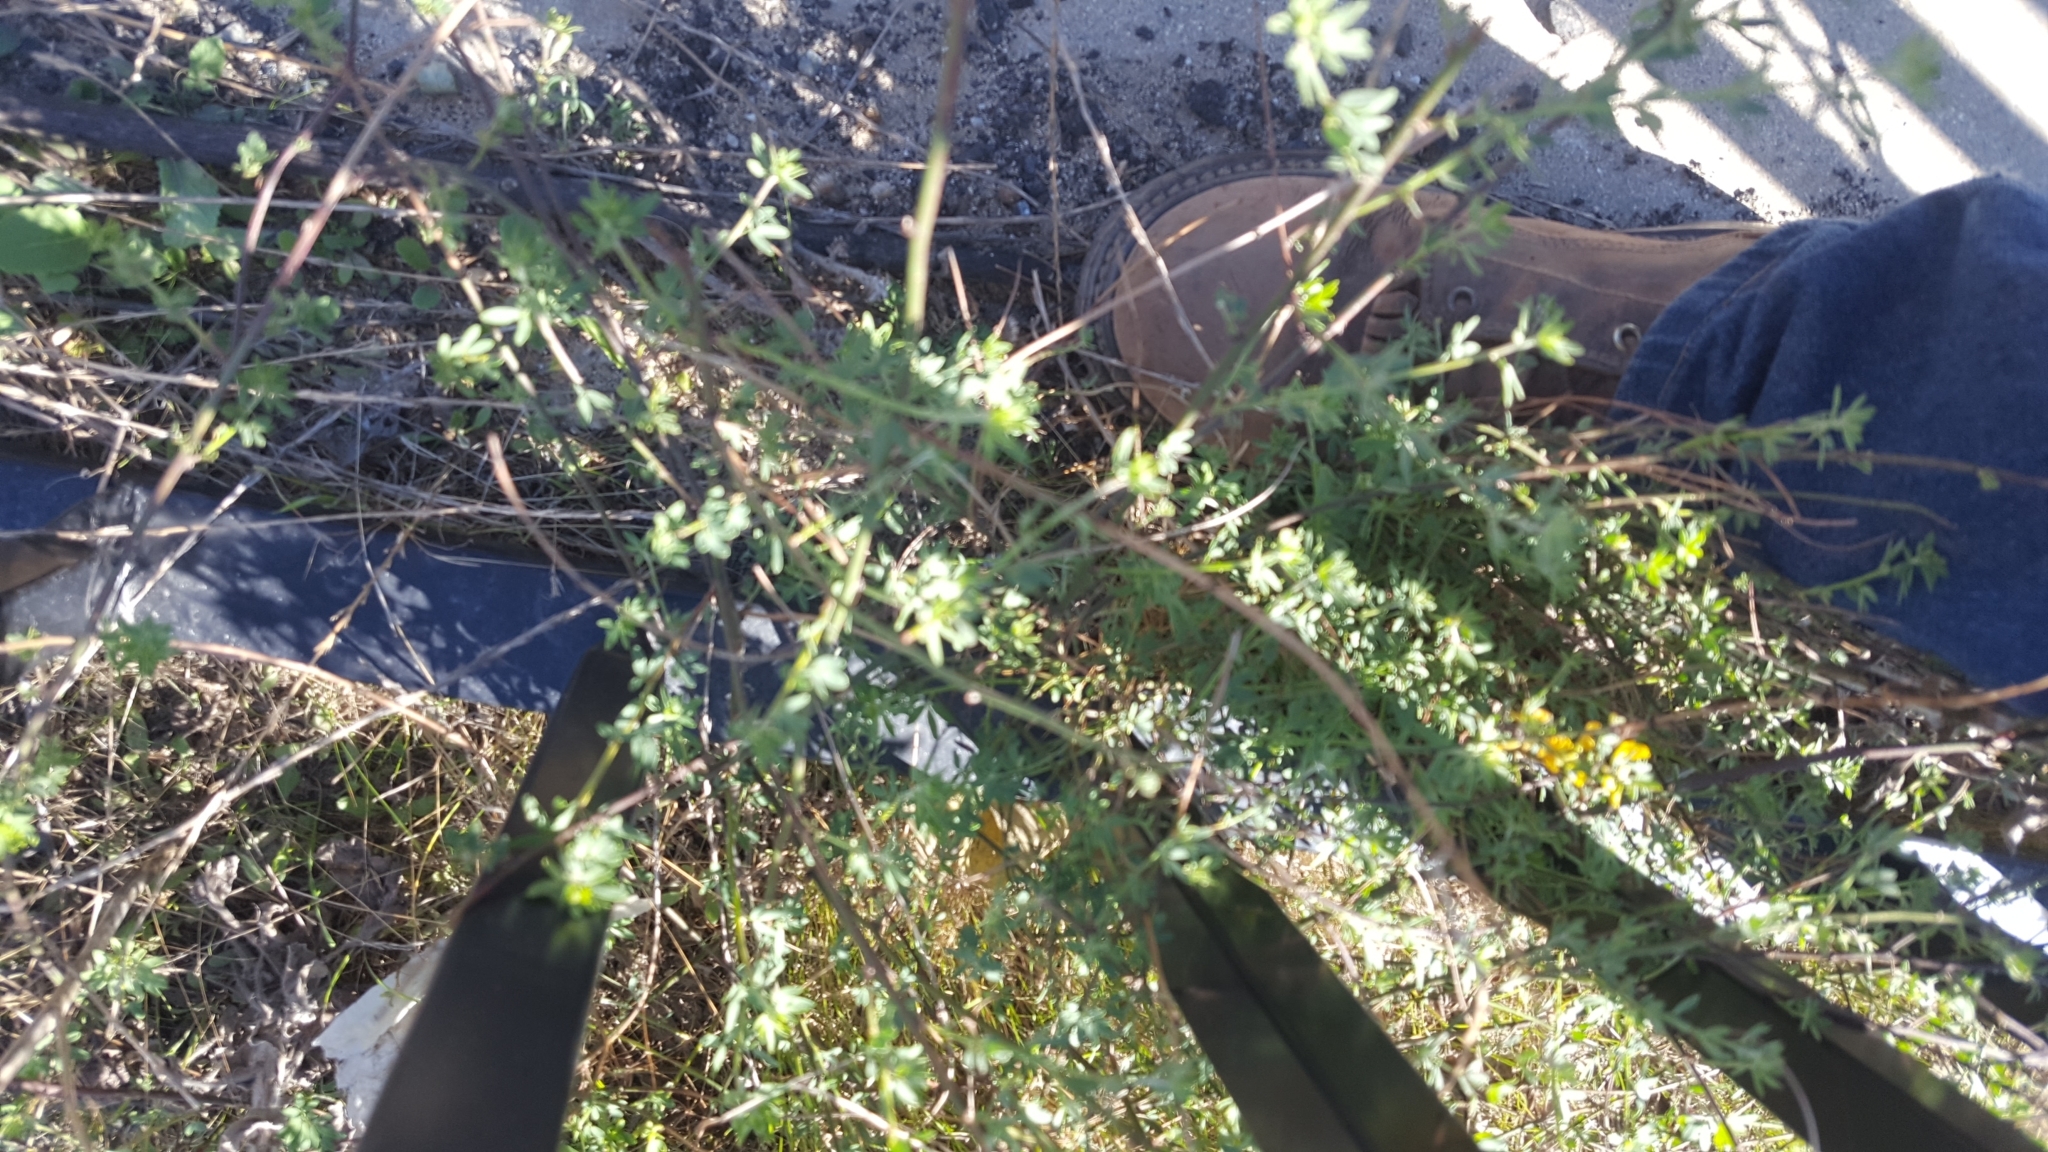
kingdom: Plantae
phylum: Tracheophyta
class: Magnoliopsida
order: Fabales
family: Fabaceae
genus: Acmispon
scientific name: Acmispon glaber
